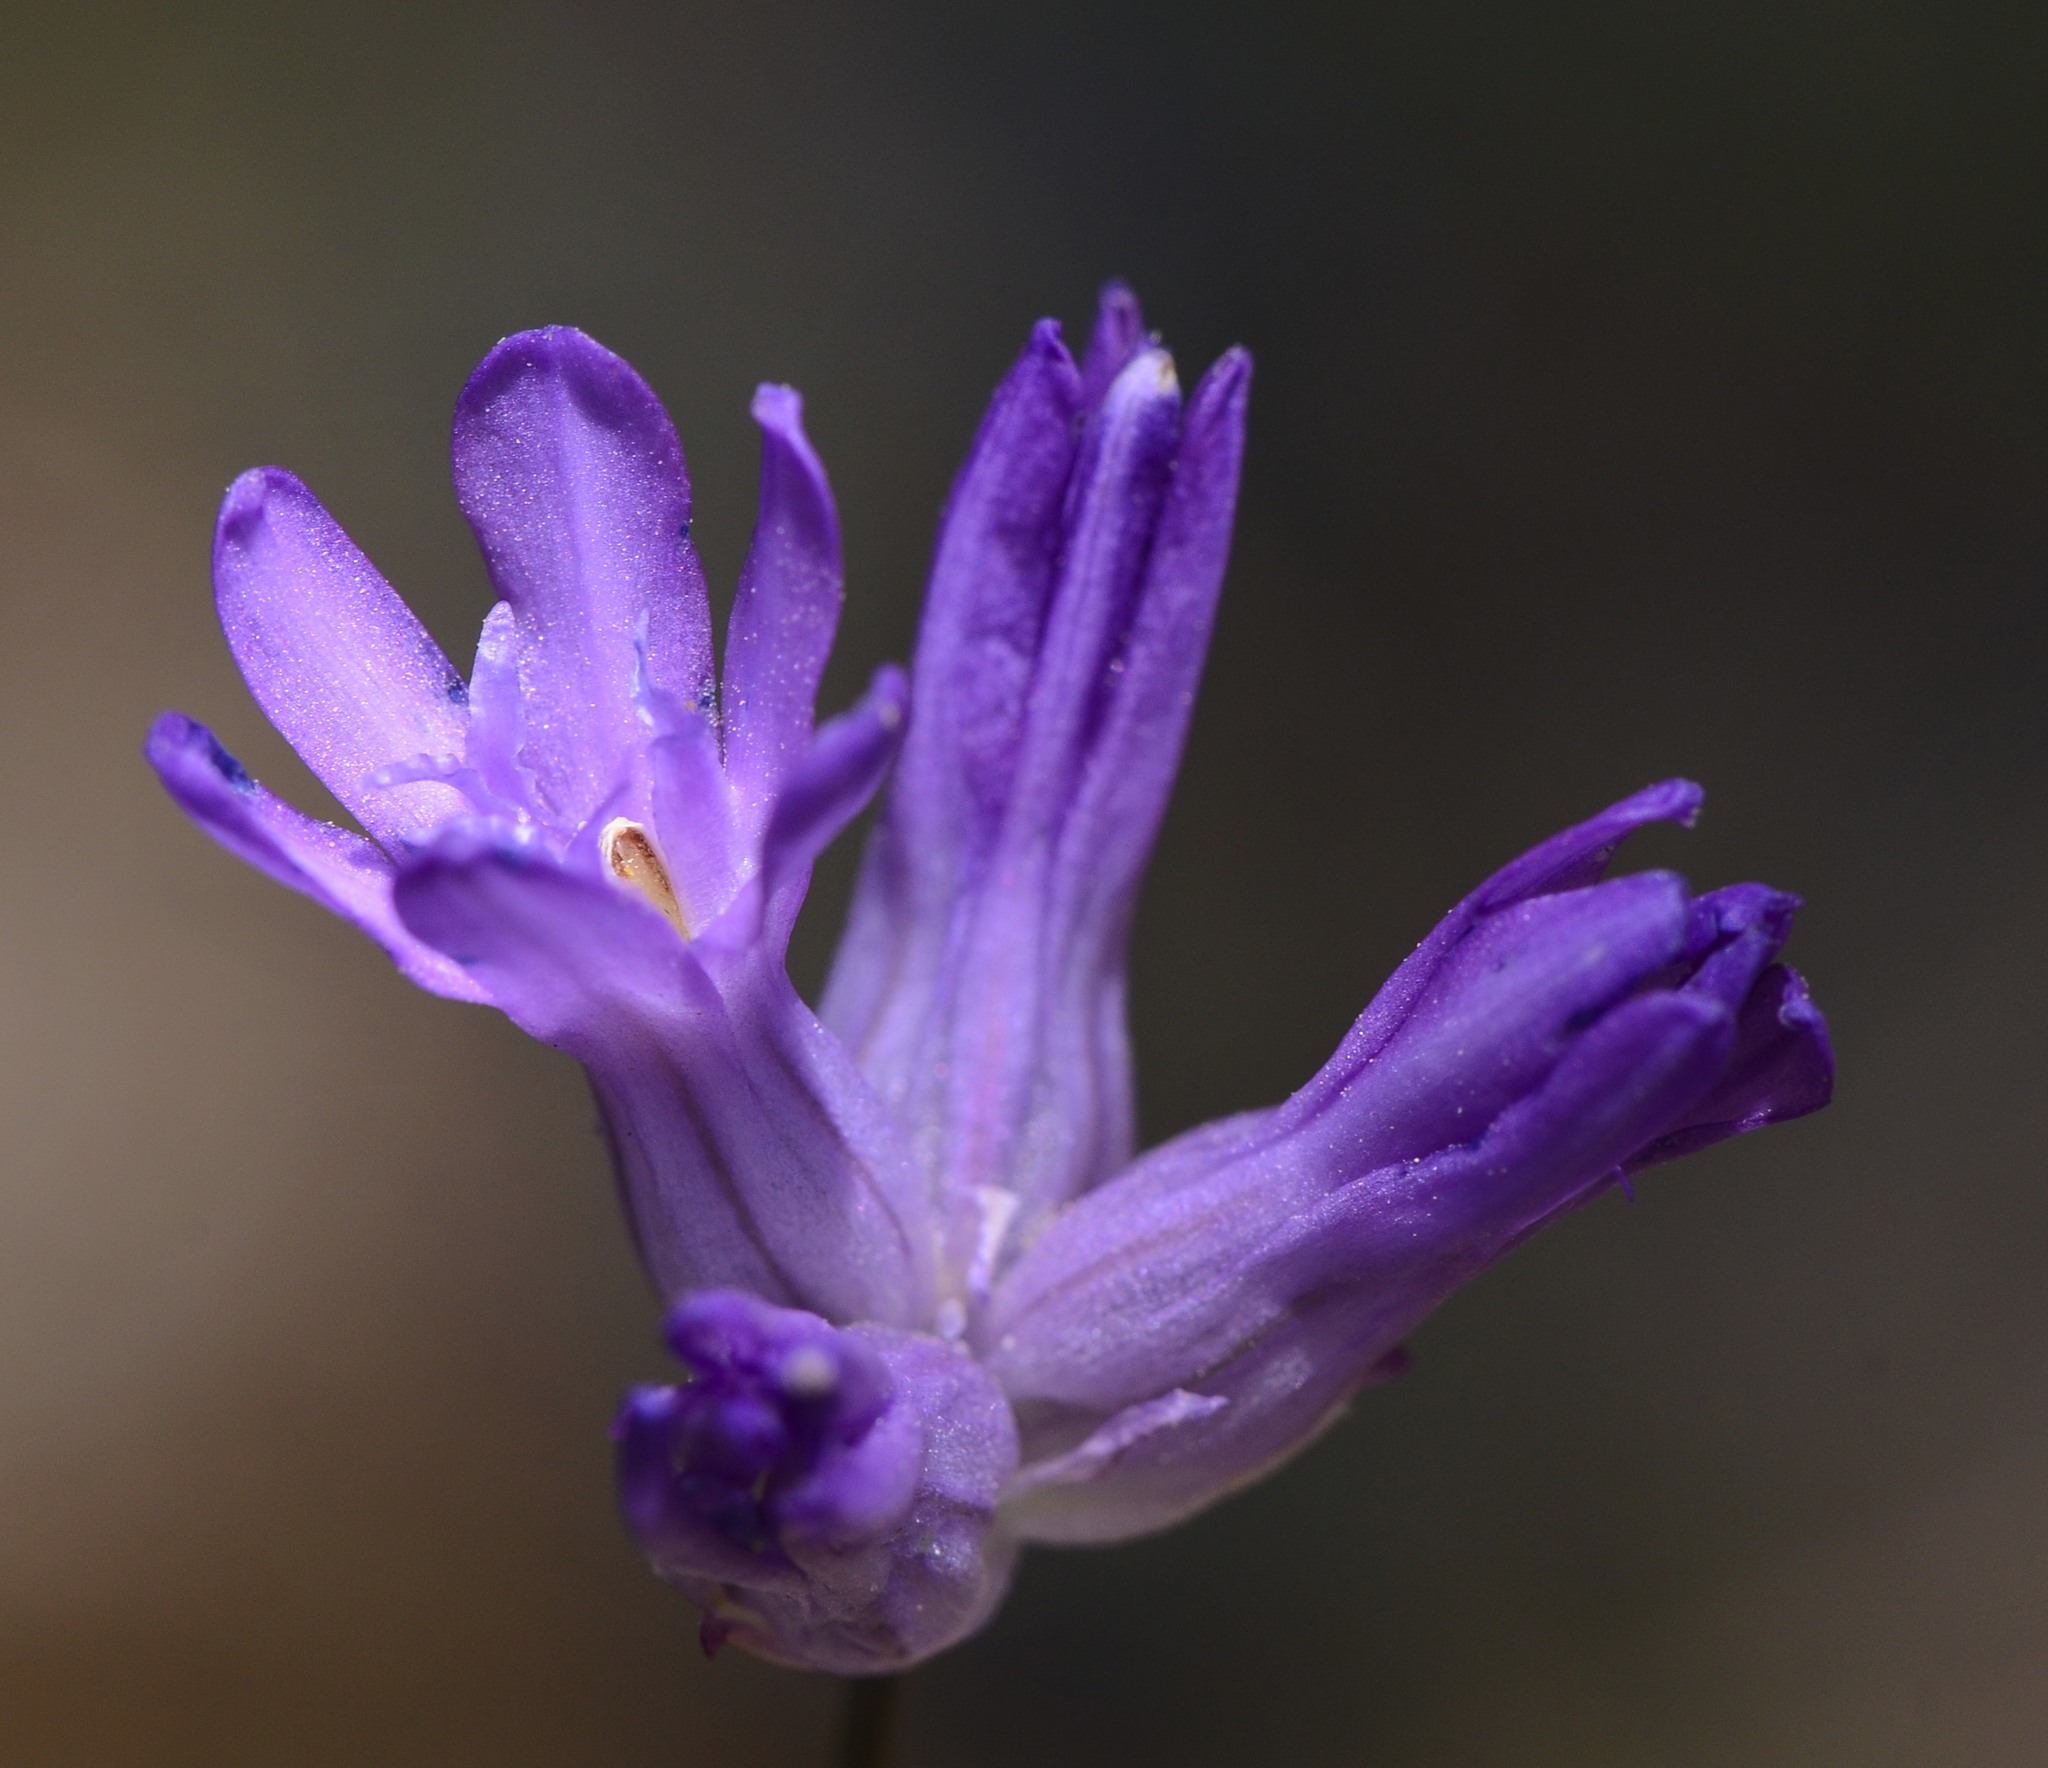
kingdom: Plantae
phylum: Tracheophyta
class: Liliopsida
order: Asparagales
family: Asparagaceae
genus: Dichelostemma
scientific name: Dichelostemma congestum
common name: Fork-tooth ookow
